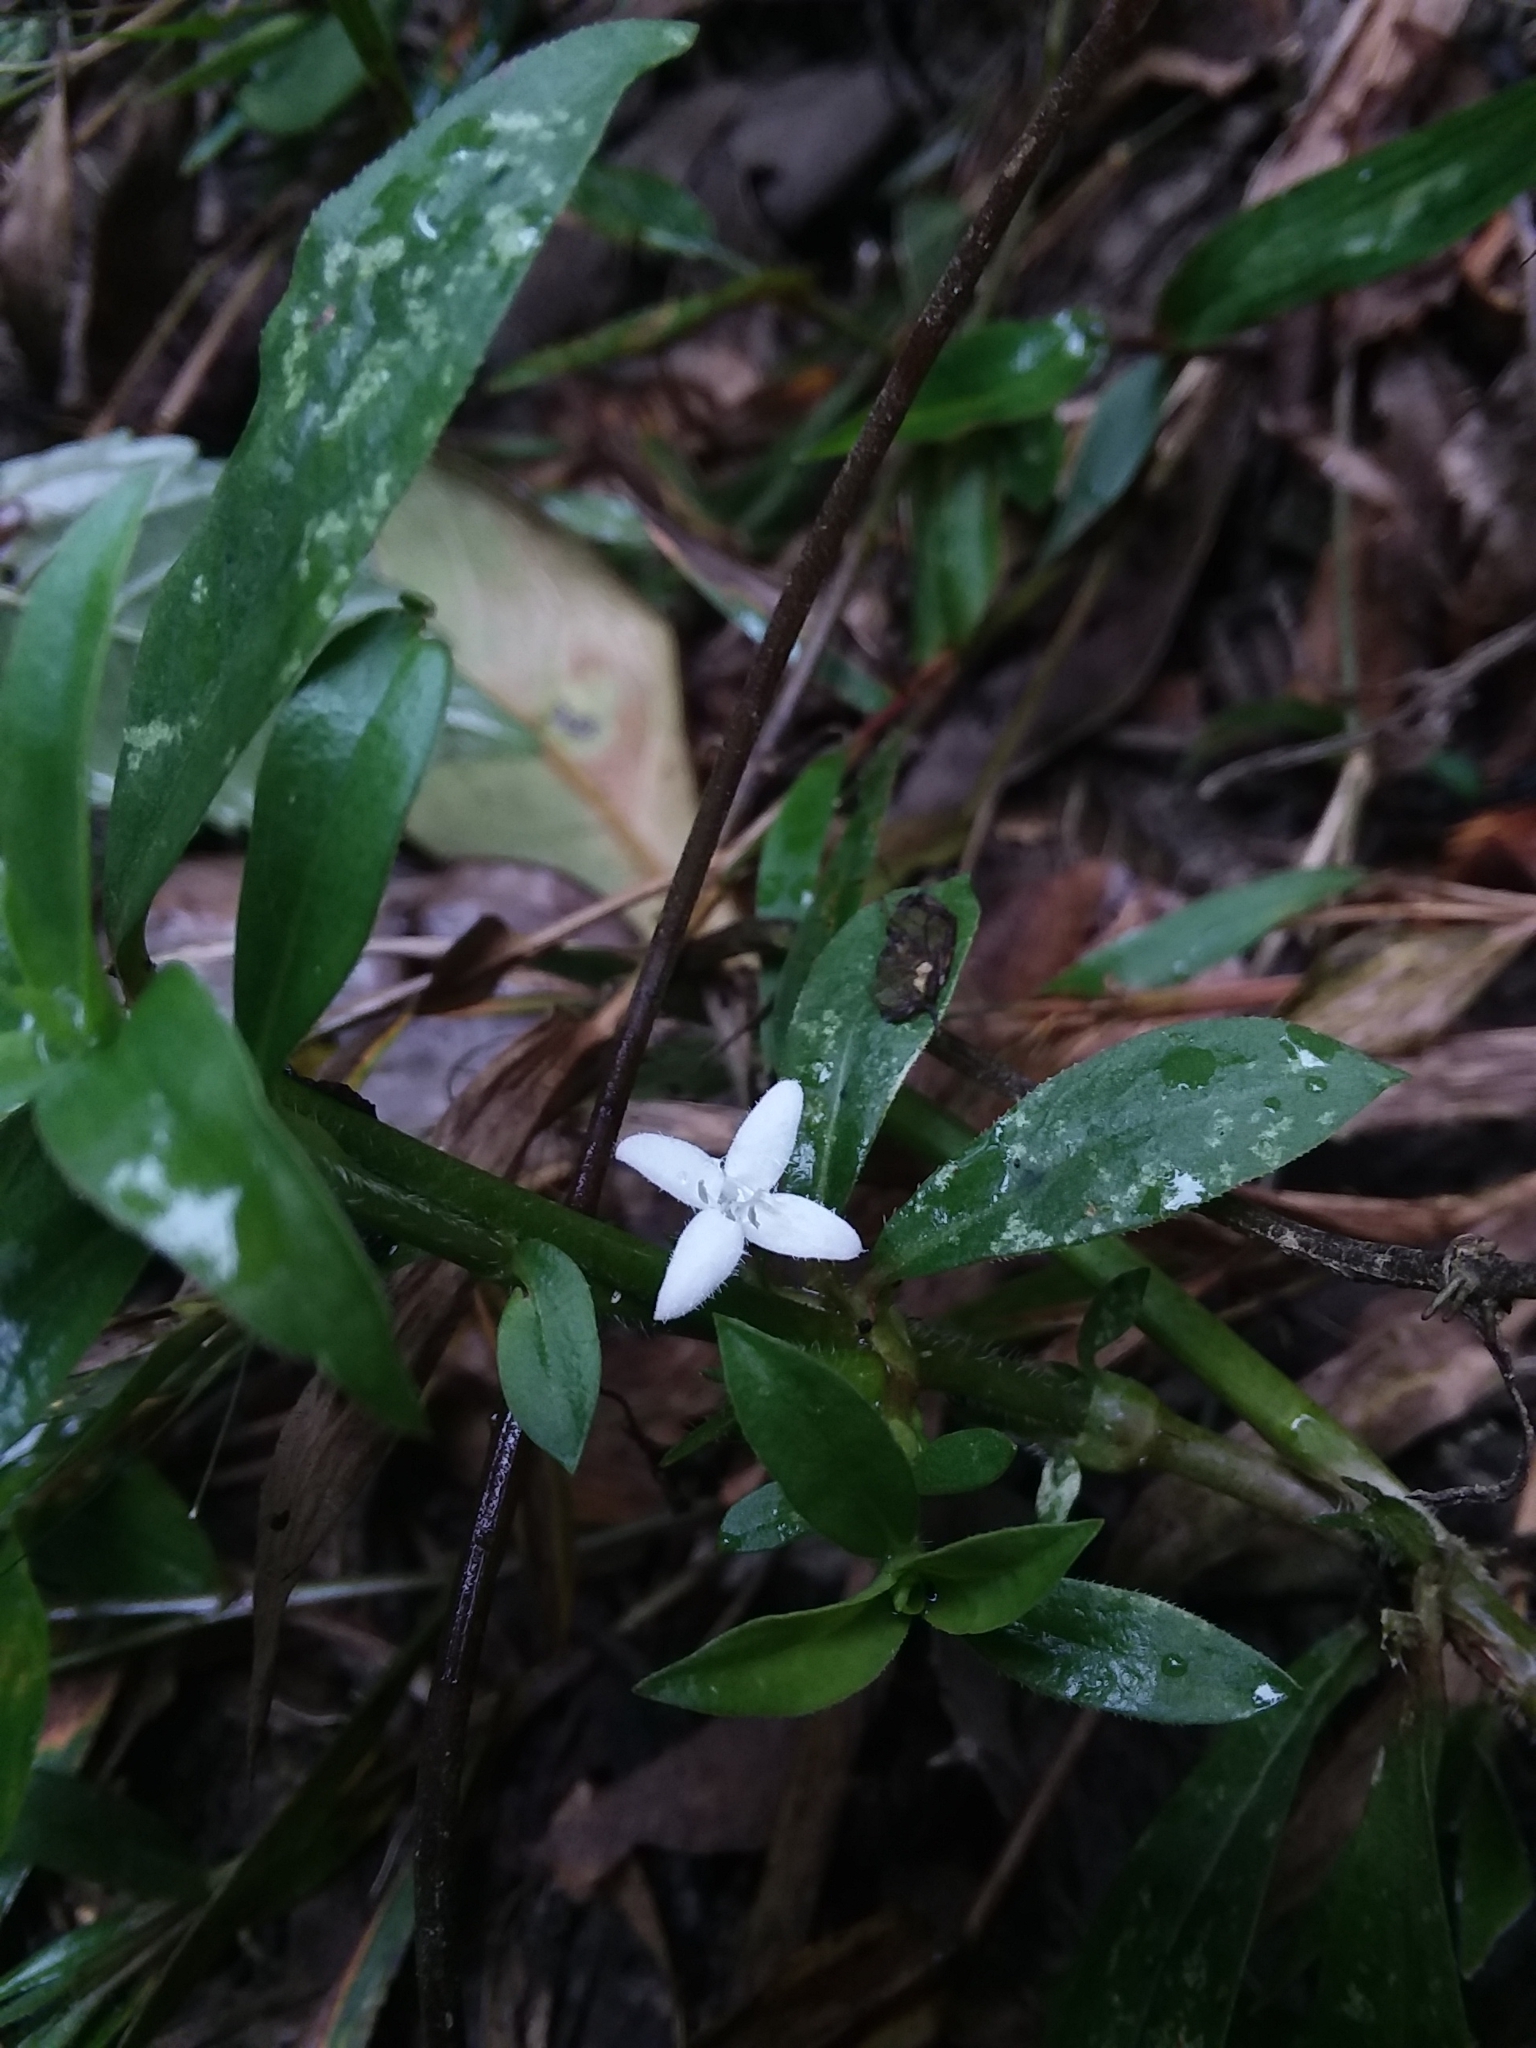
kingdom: Plantae
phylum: Tracheophyta
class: Magnoliopsida
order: Gentianales
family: Rubiaceae
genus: Diodia
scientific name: Diodia virginiana
